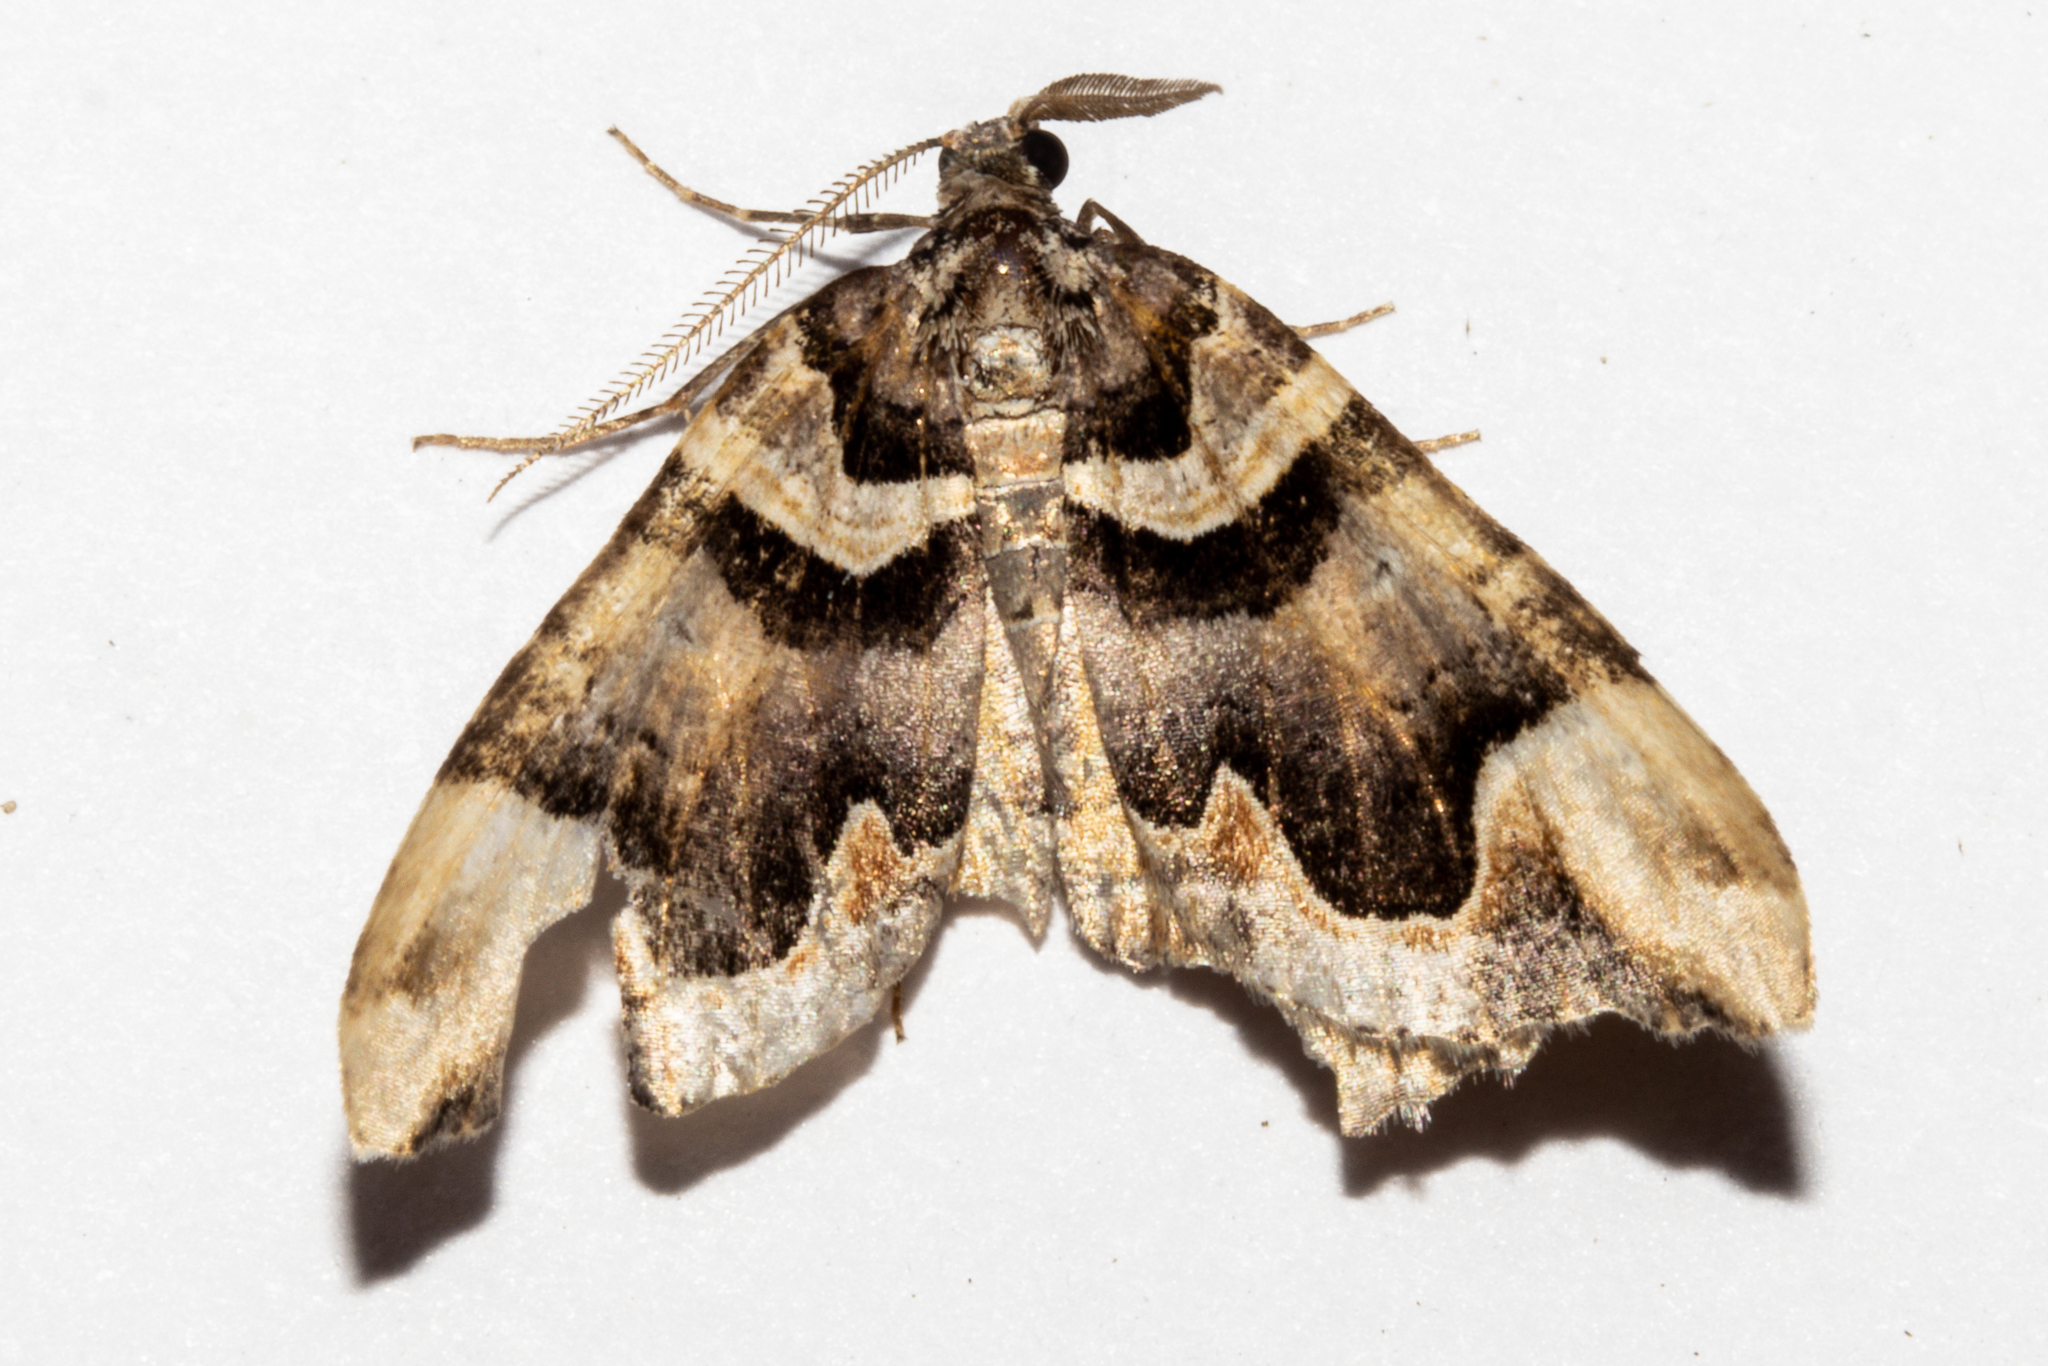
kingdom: Animalia
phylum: Arthropoda
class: Insecta
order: Lepidoptera
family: Geometridae
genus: Asaphodes
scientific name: Asaphodes chlamydota
